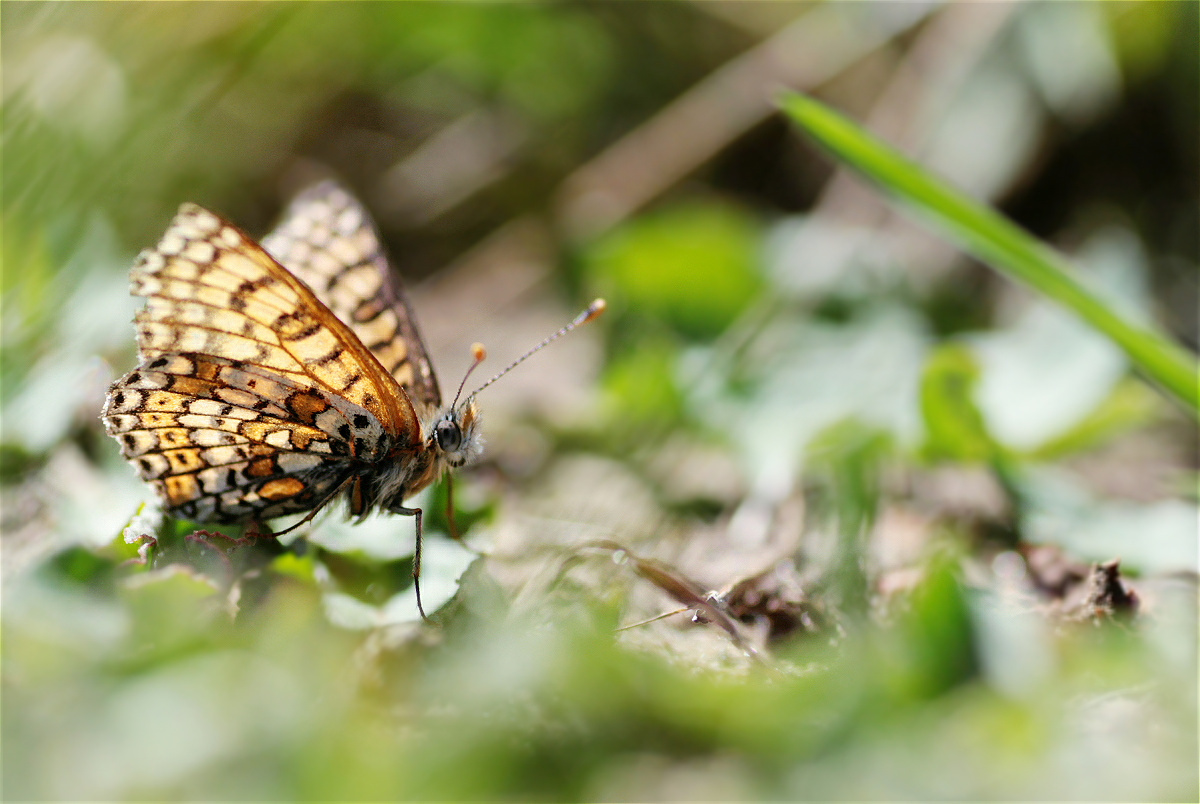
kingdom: Animalia
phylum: Arthropoda
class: Insecta
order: Lepidoptera
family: Nymphalidae
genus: Melitaea
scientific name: Melitaea cinxia
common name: Glanville fritillary
